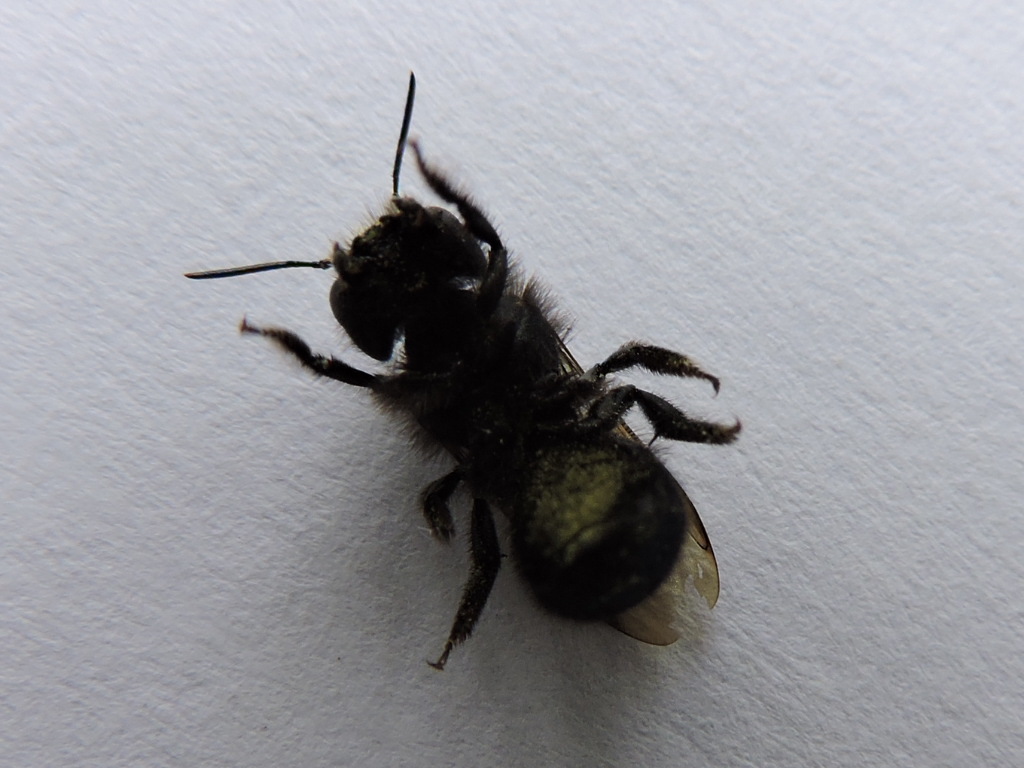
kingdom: Animalia
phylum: Arthropoda
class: Insecta
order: Hymenoptera
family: Megachilidae
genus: Osmia
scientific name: Osmia ribifloris
